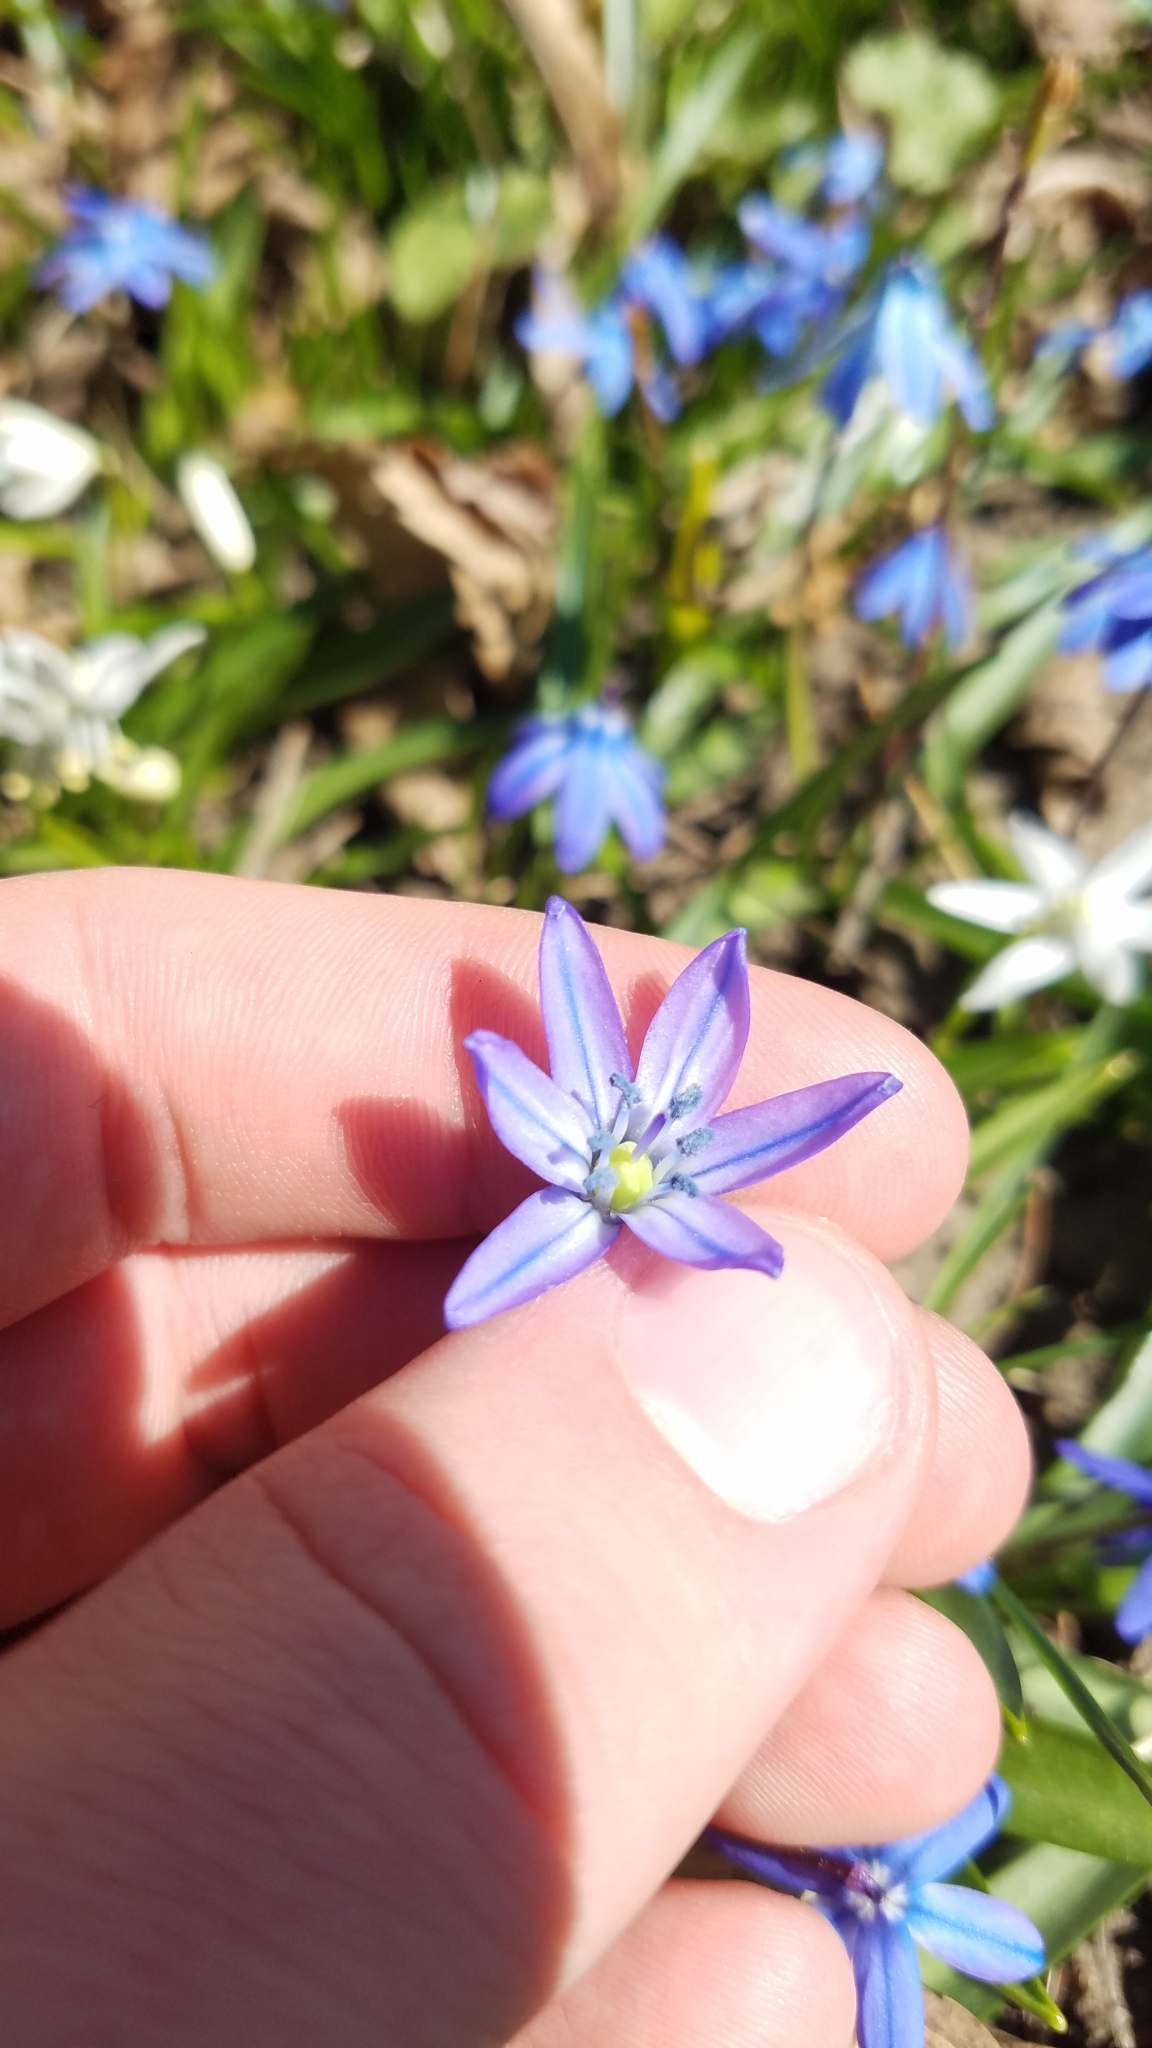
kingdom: Plantae
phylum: Tracheophyta
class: Liliopsida
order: Asparagales
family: Asparagaceae
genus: Scilla
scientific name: Scilla siberica
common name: Siberian squill
